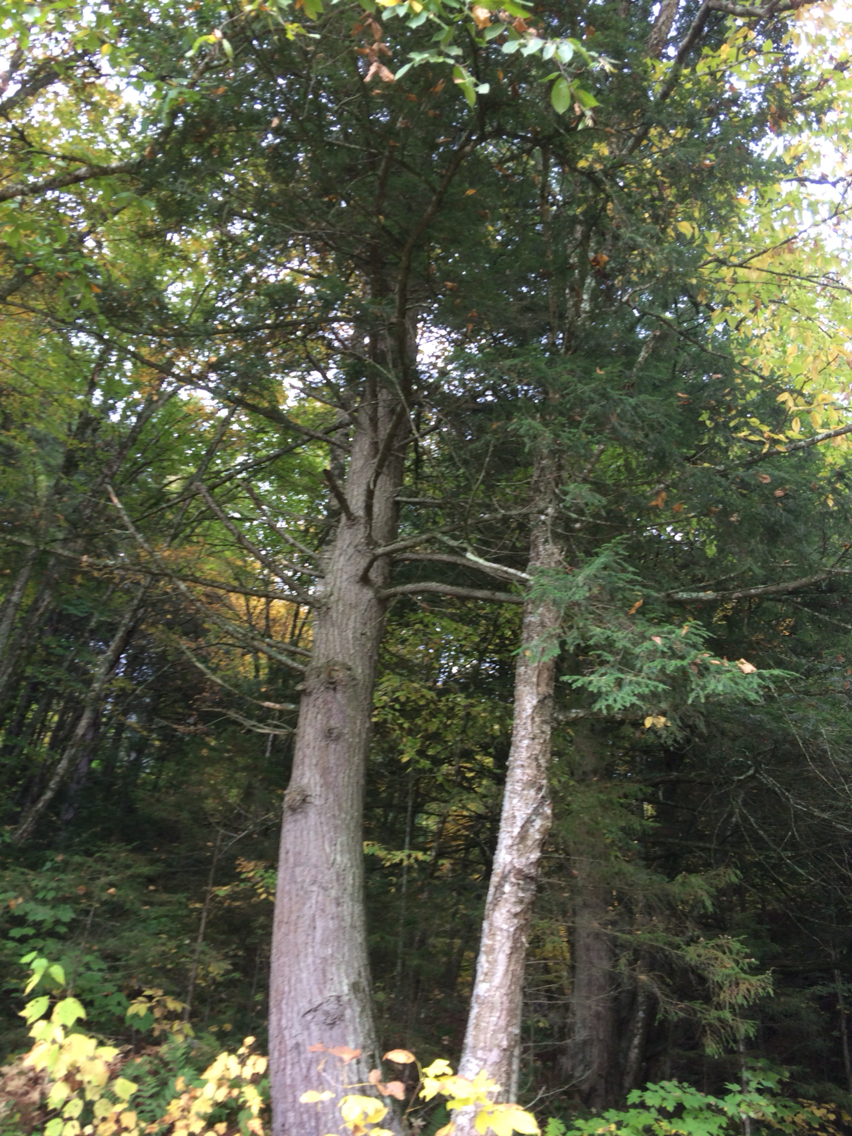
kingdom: Plantae
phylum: Tracheophyta
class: Pinopsida
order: Pinales
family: Pinaceae
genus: Tsuga
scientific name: Tsuga canadensis
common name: Eastern hemlock
